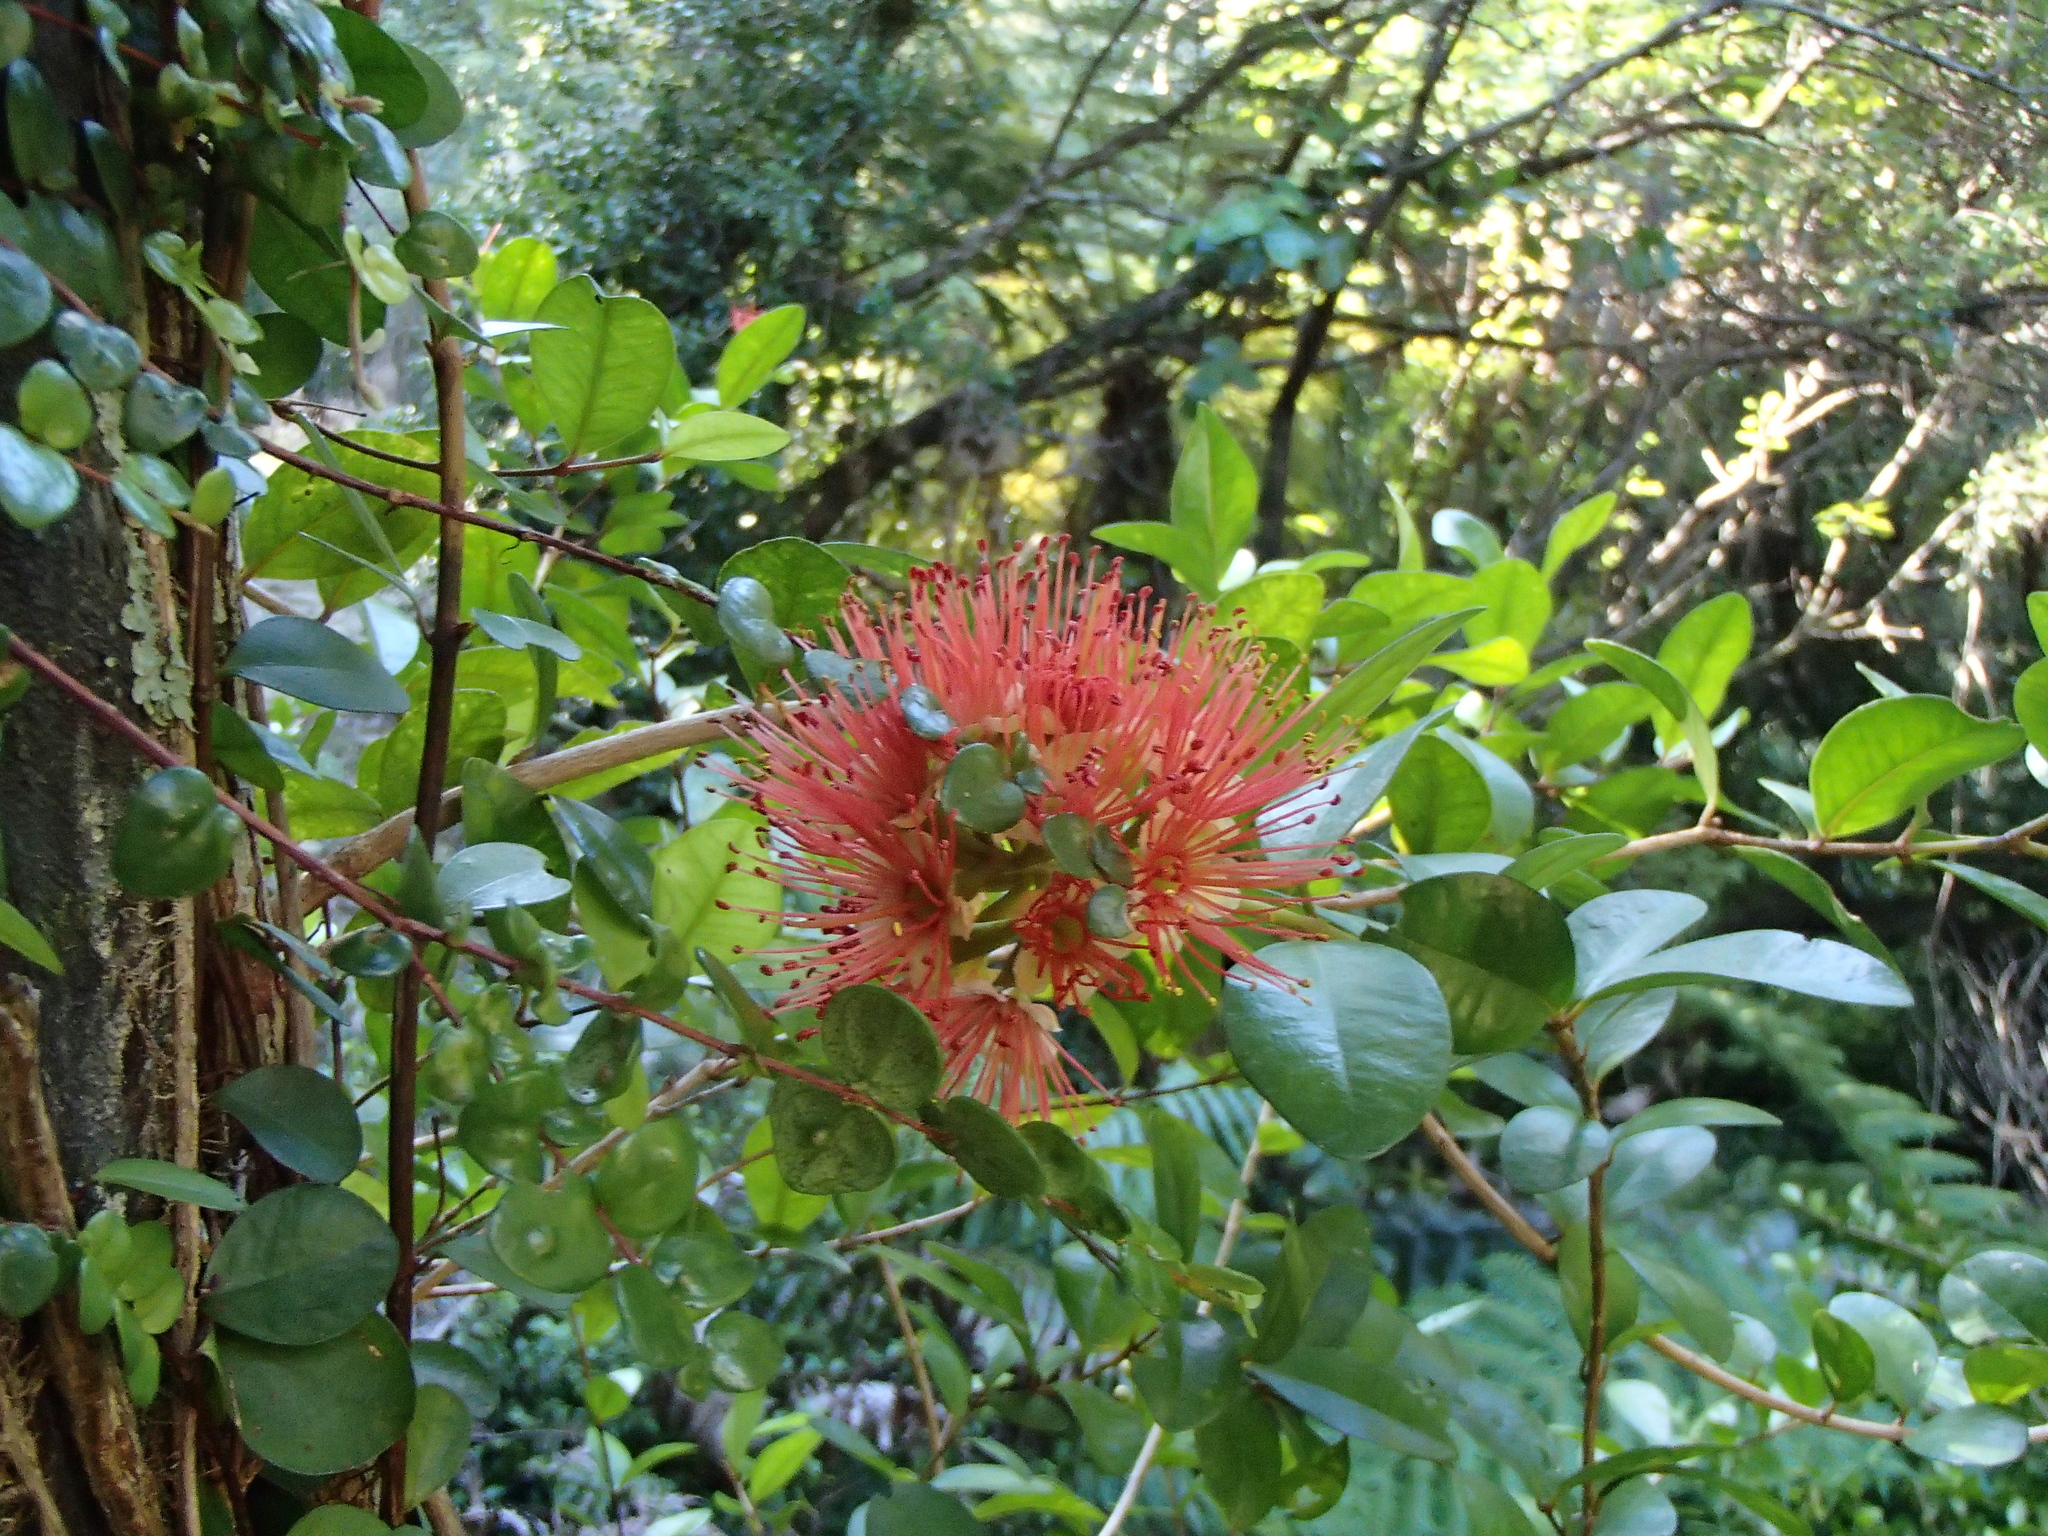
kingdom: Plantae
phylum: Tracheophyta
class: Magnoliopsida
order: Myrtales
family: Myrtaceae
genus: Metrosideros
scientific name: Metrosideros fulgens
